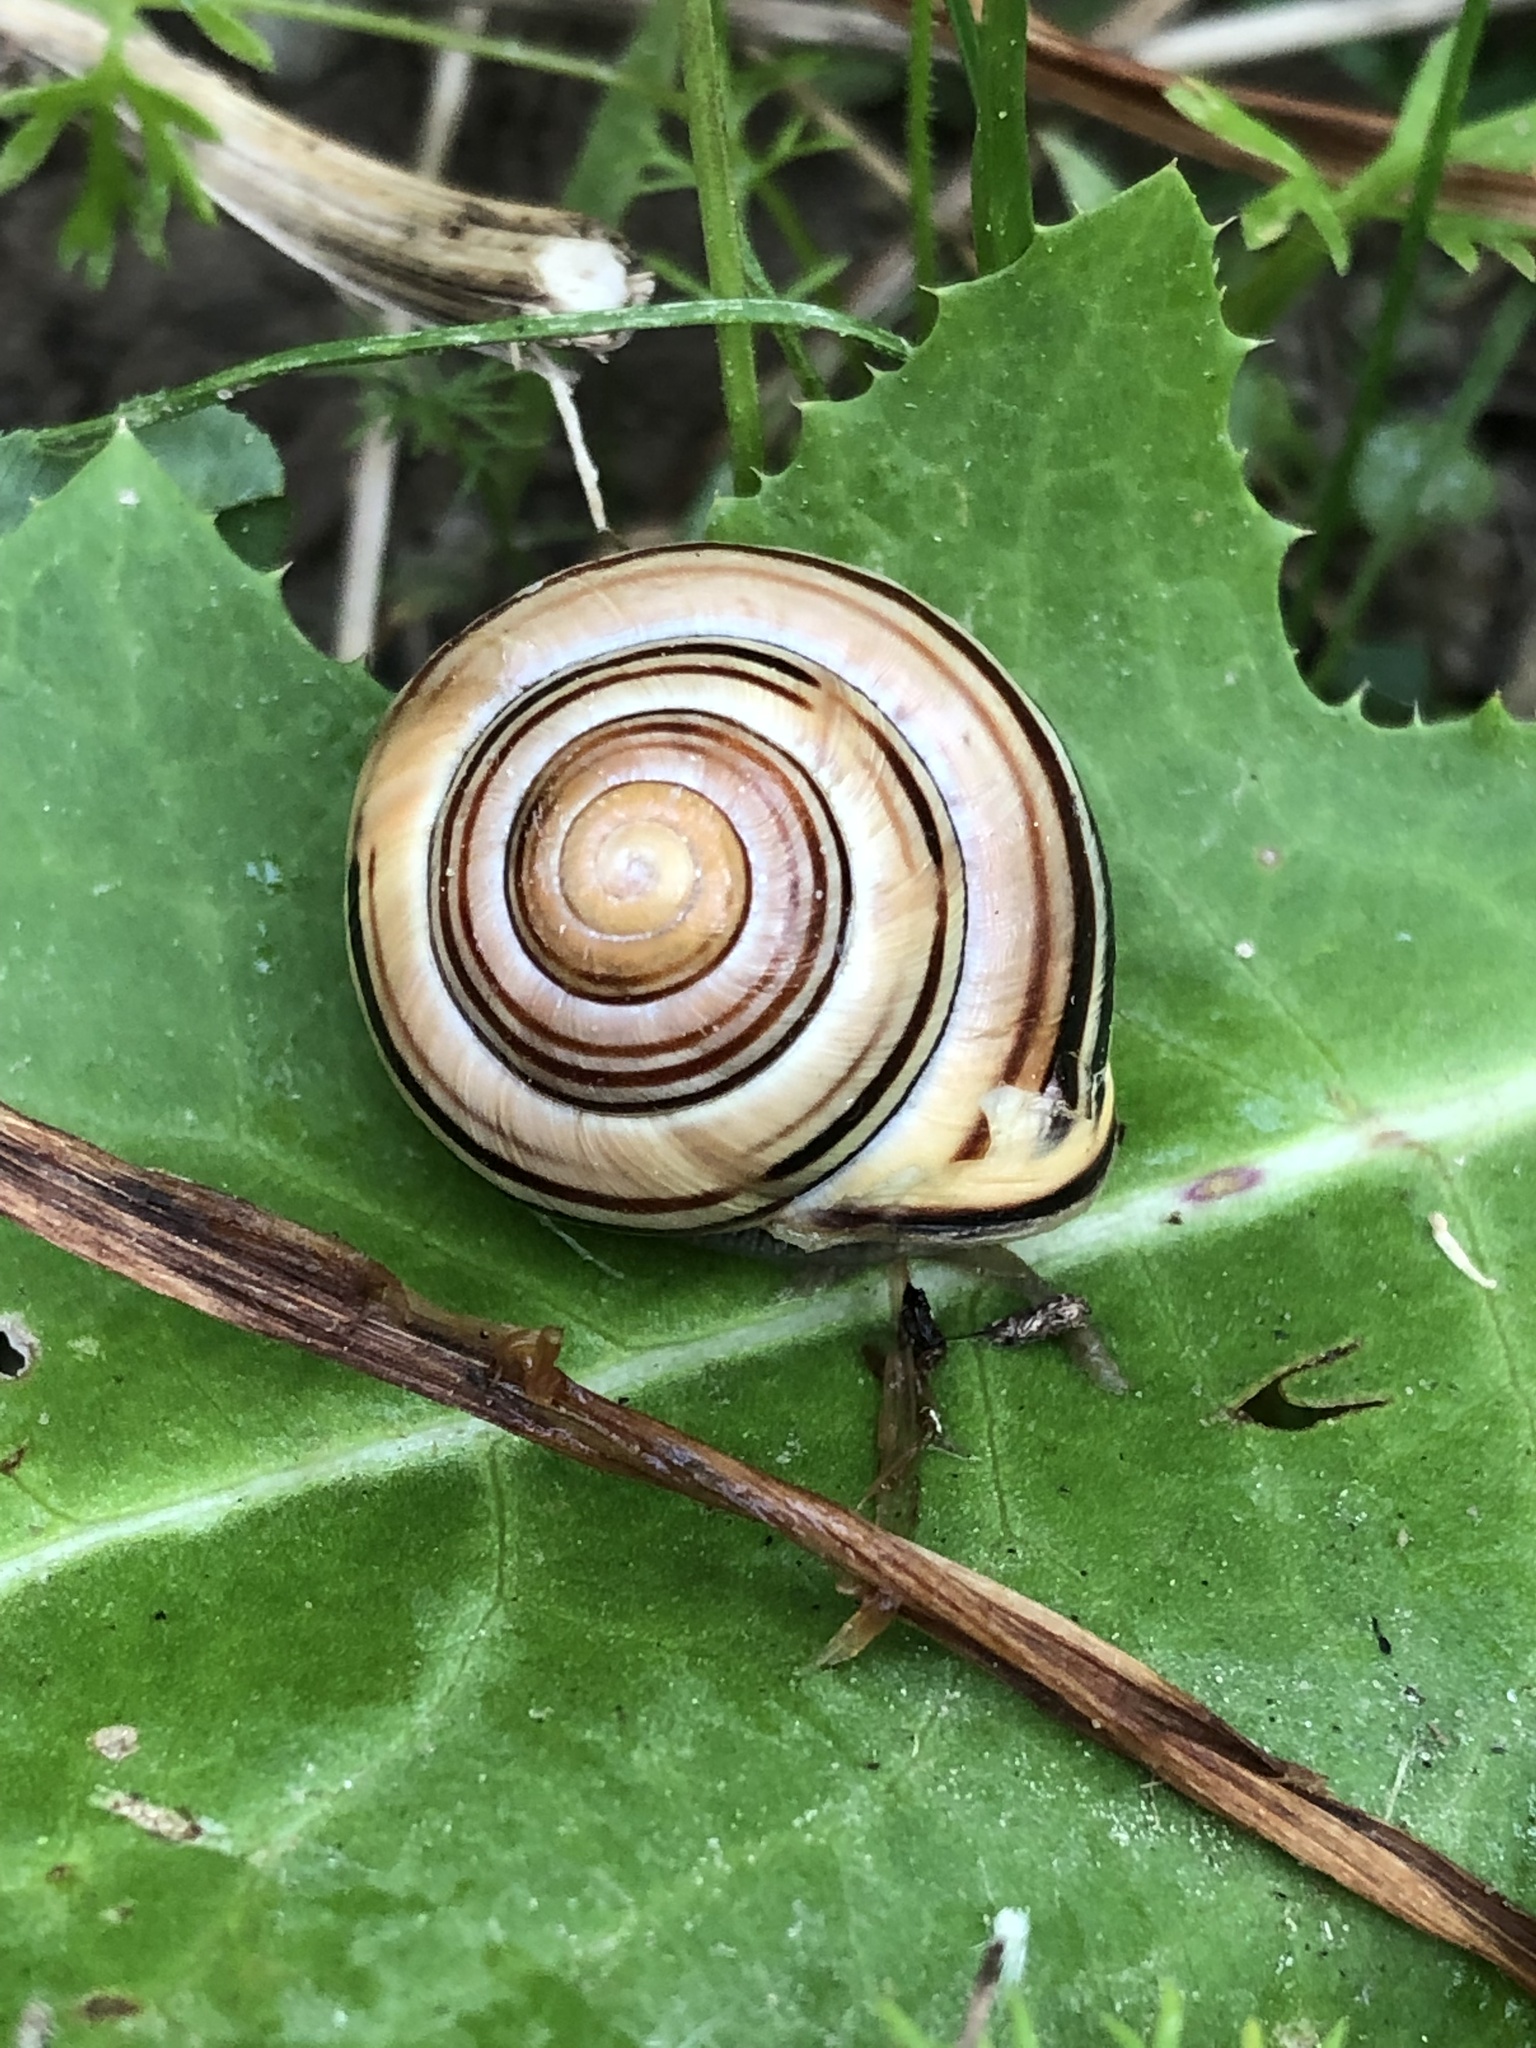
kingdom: Animalia
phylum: Mollusca
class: Gastropoda
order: Stylommatophora
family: Helicidae
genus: Cepaea
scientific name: Cepaea nemoralis
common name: Grovesnail
